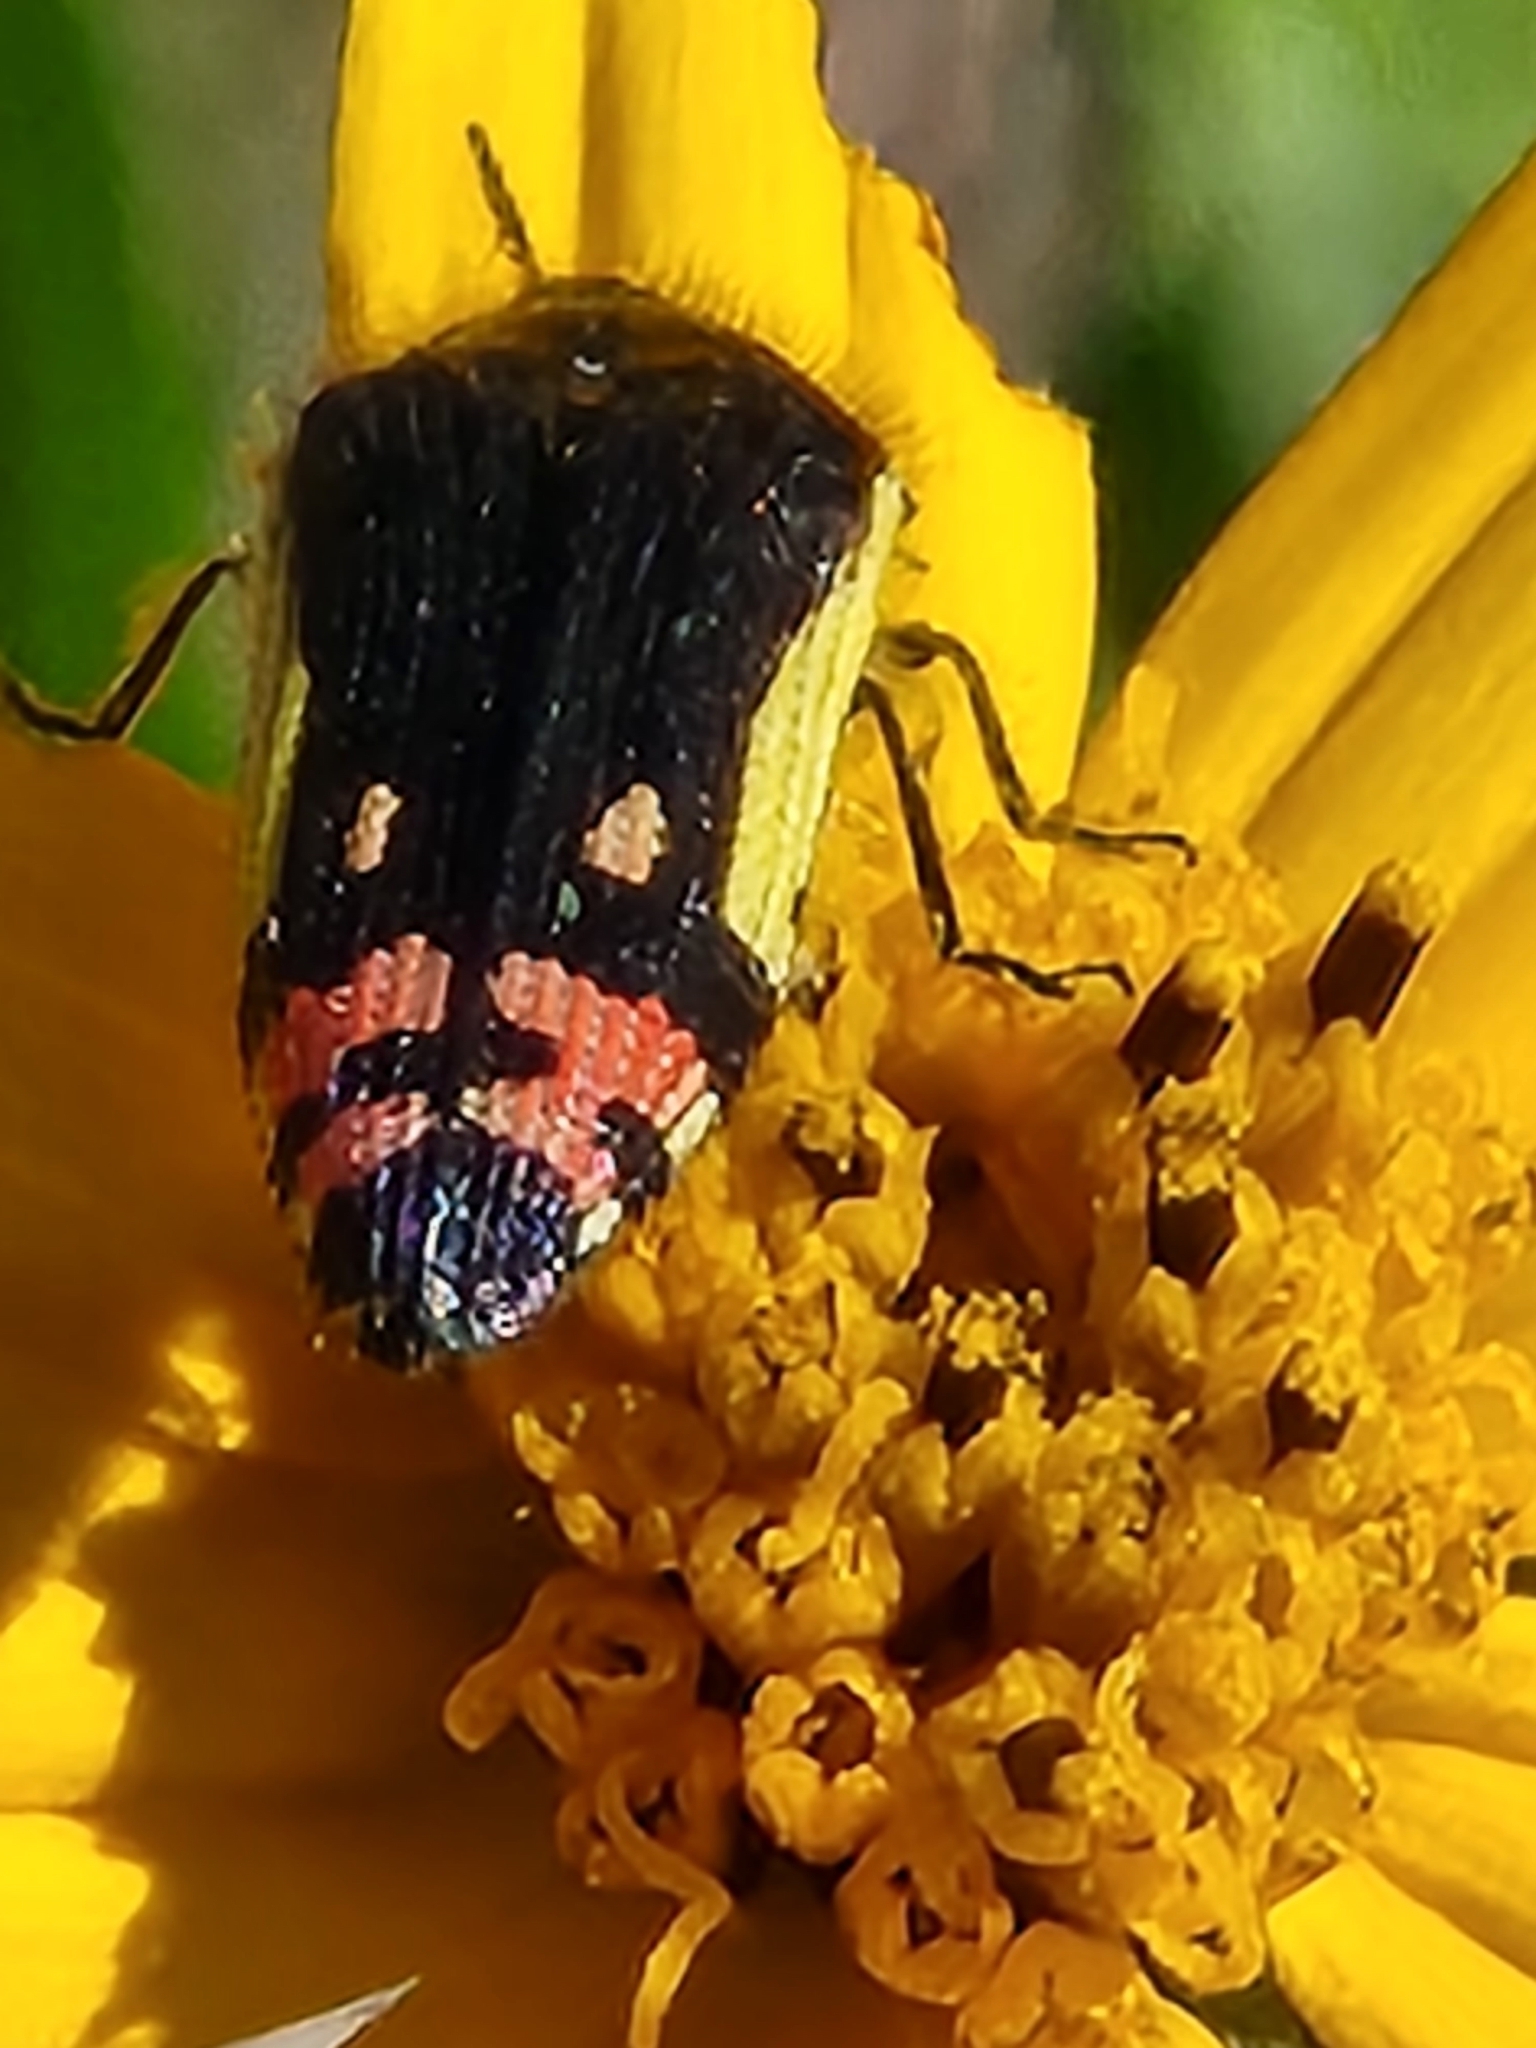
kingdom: Animalia
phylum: Arthropoda
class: Insecta
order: Coleoptera
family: Buprestidae
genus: Acmaeodera
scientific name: Acmaeodera flavomarginata
